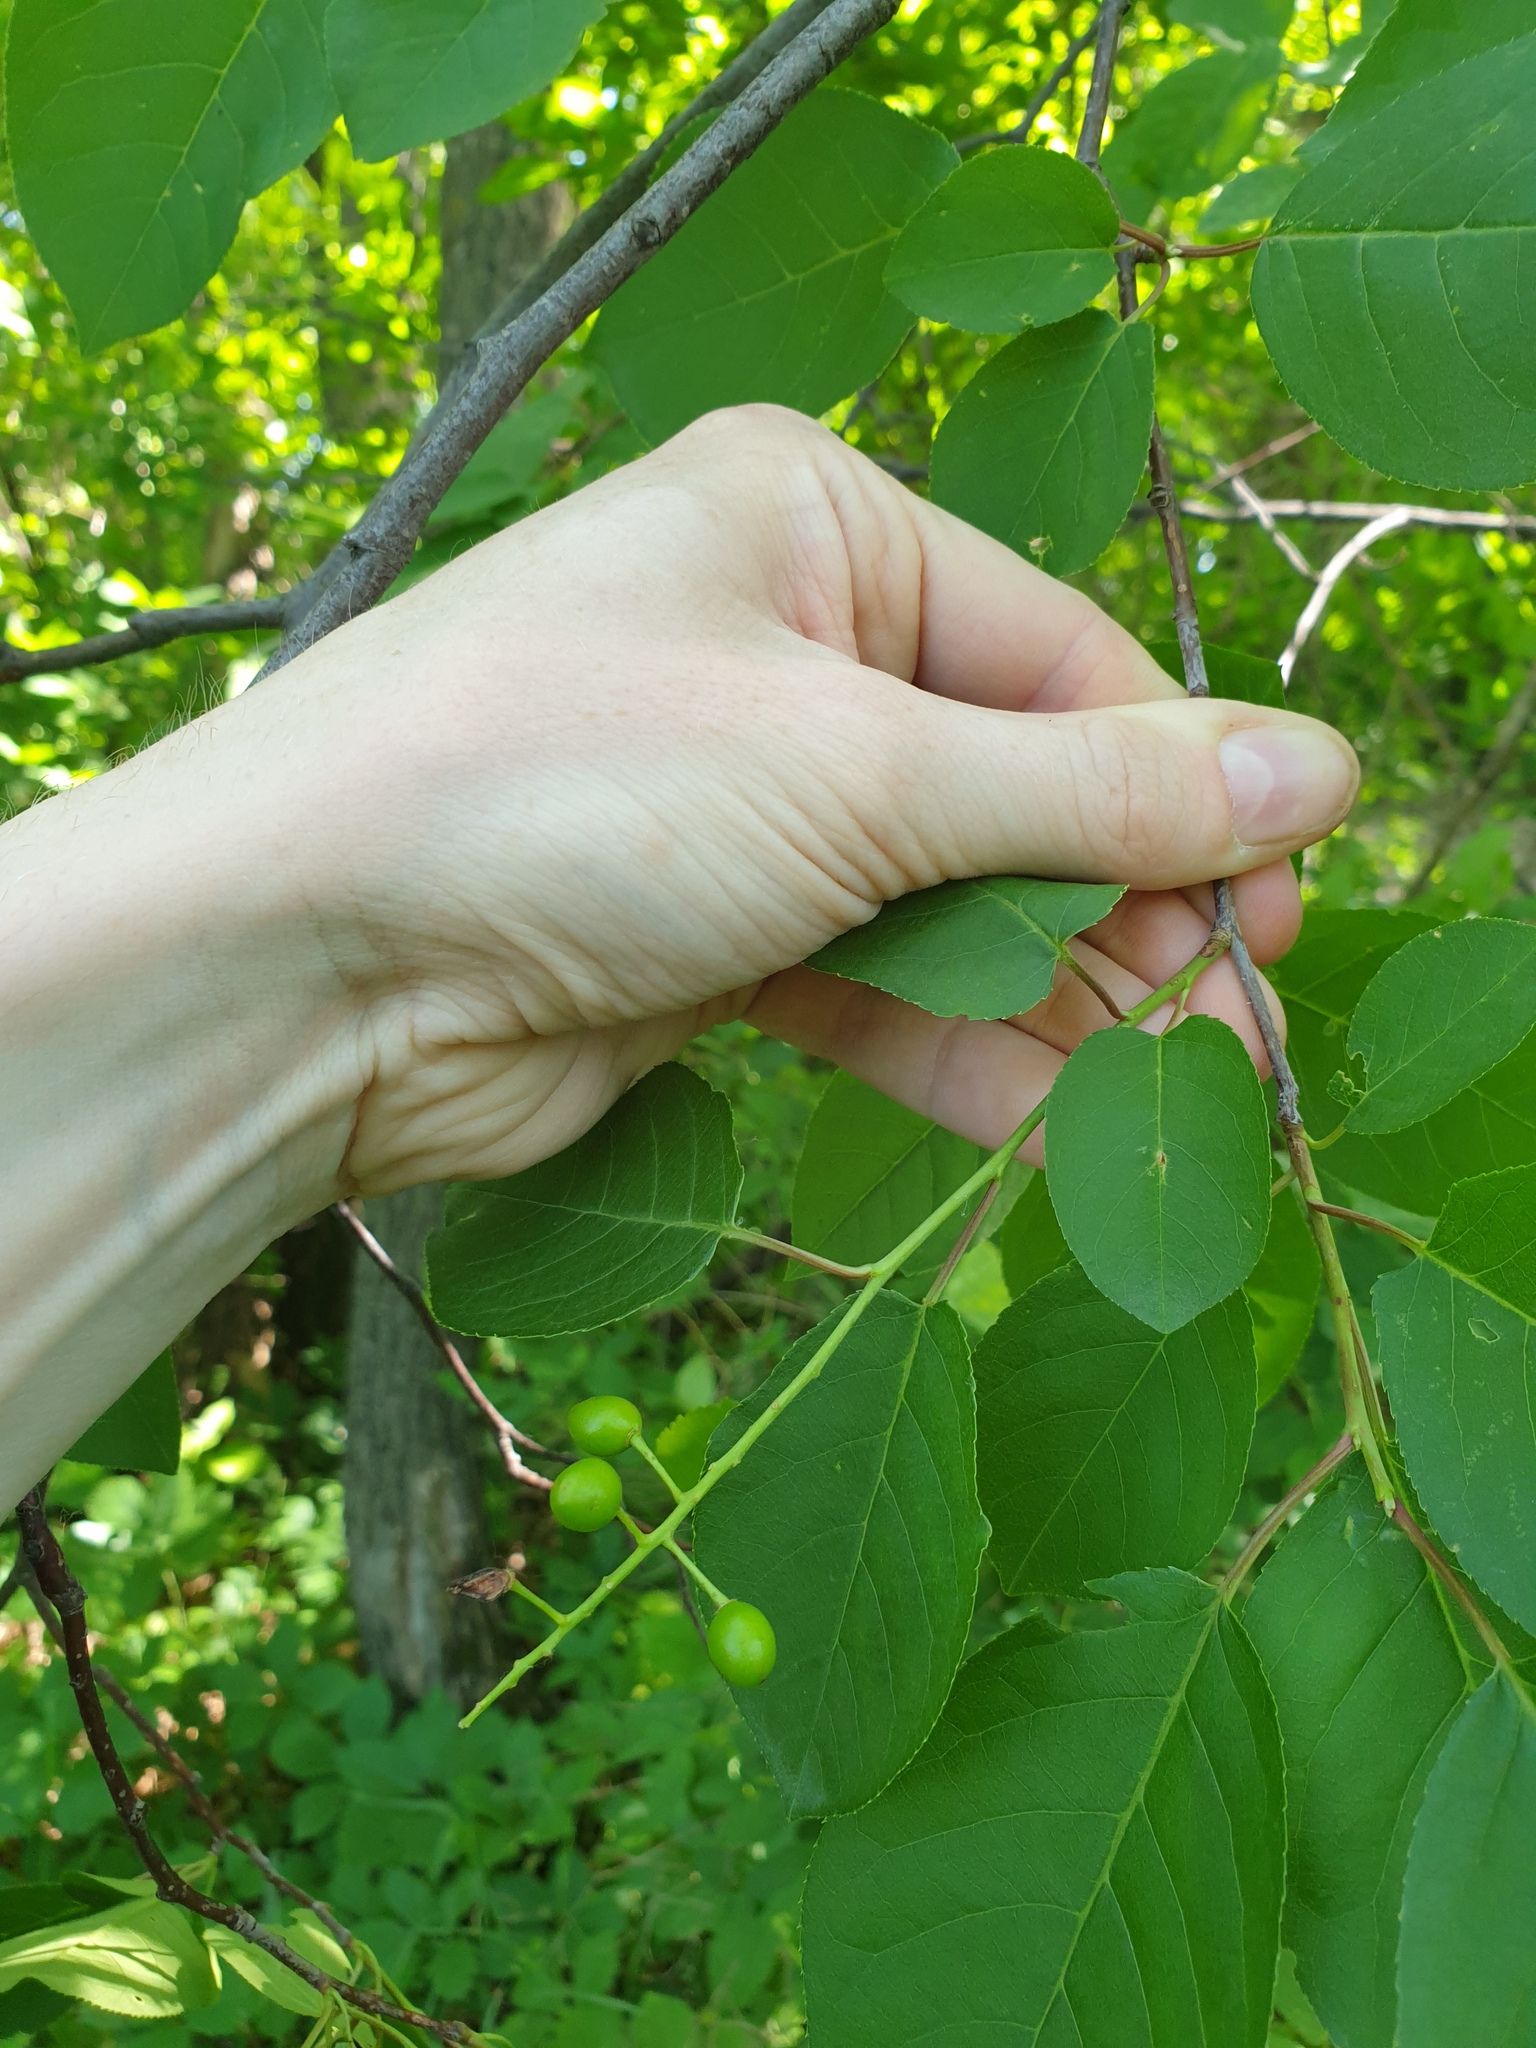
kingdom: Plantae
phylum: Tracheophyta
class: Magnoliopsida
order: Rosales
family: Rosaceae
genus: Prunus
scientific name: Prunus virginiana
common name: Chokecherry
